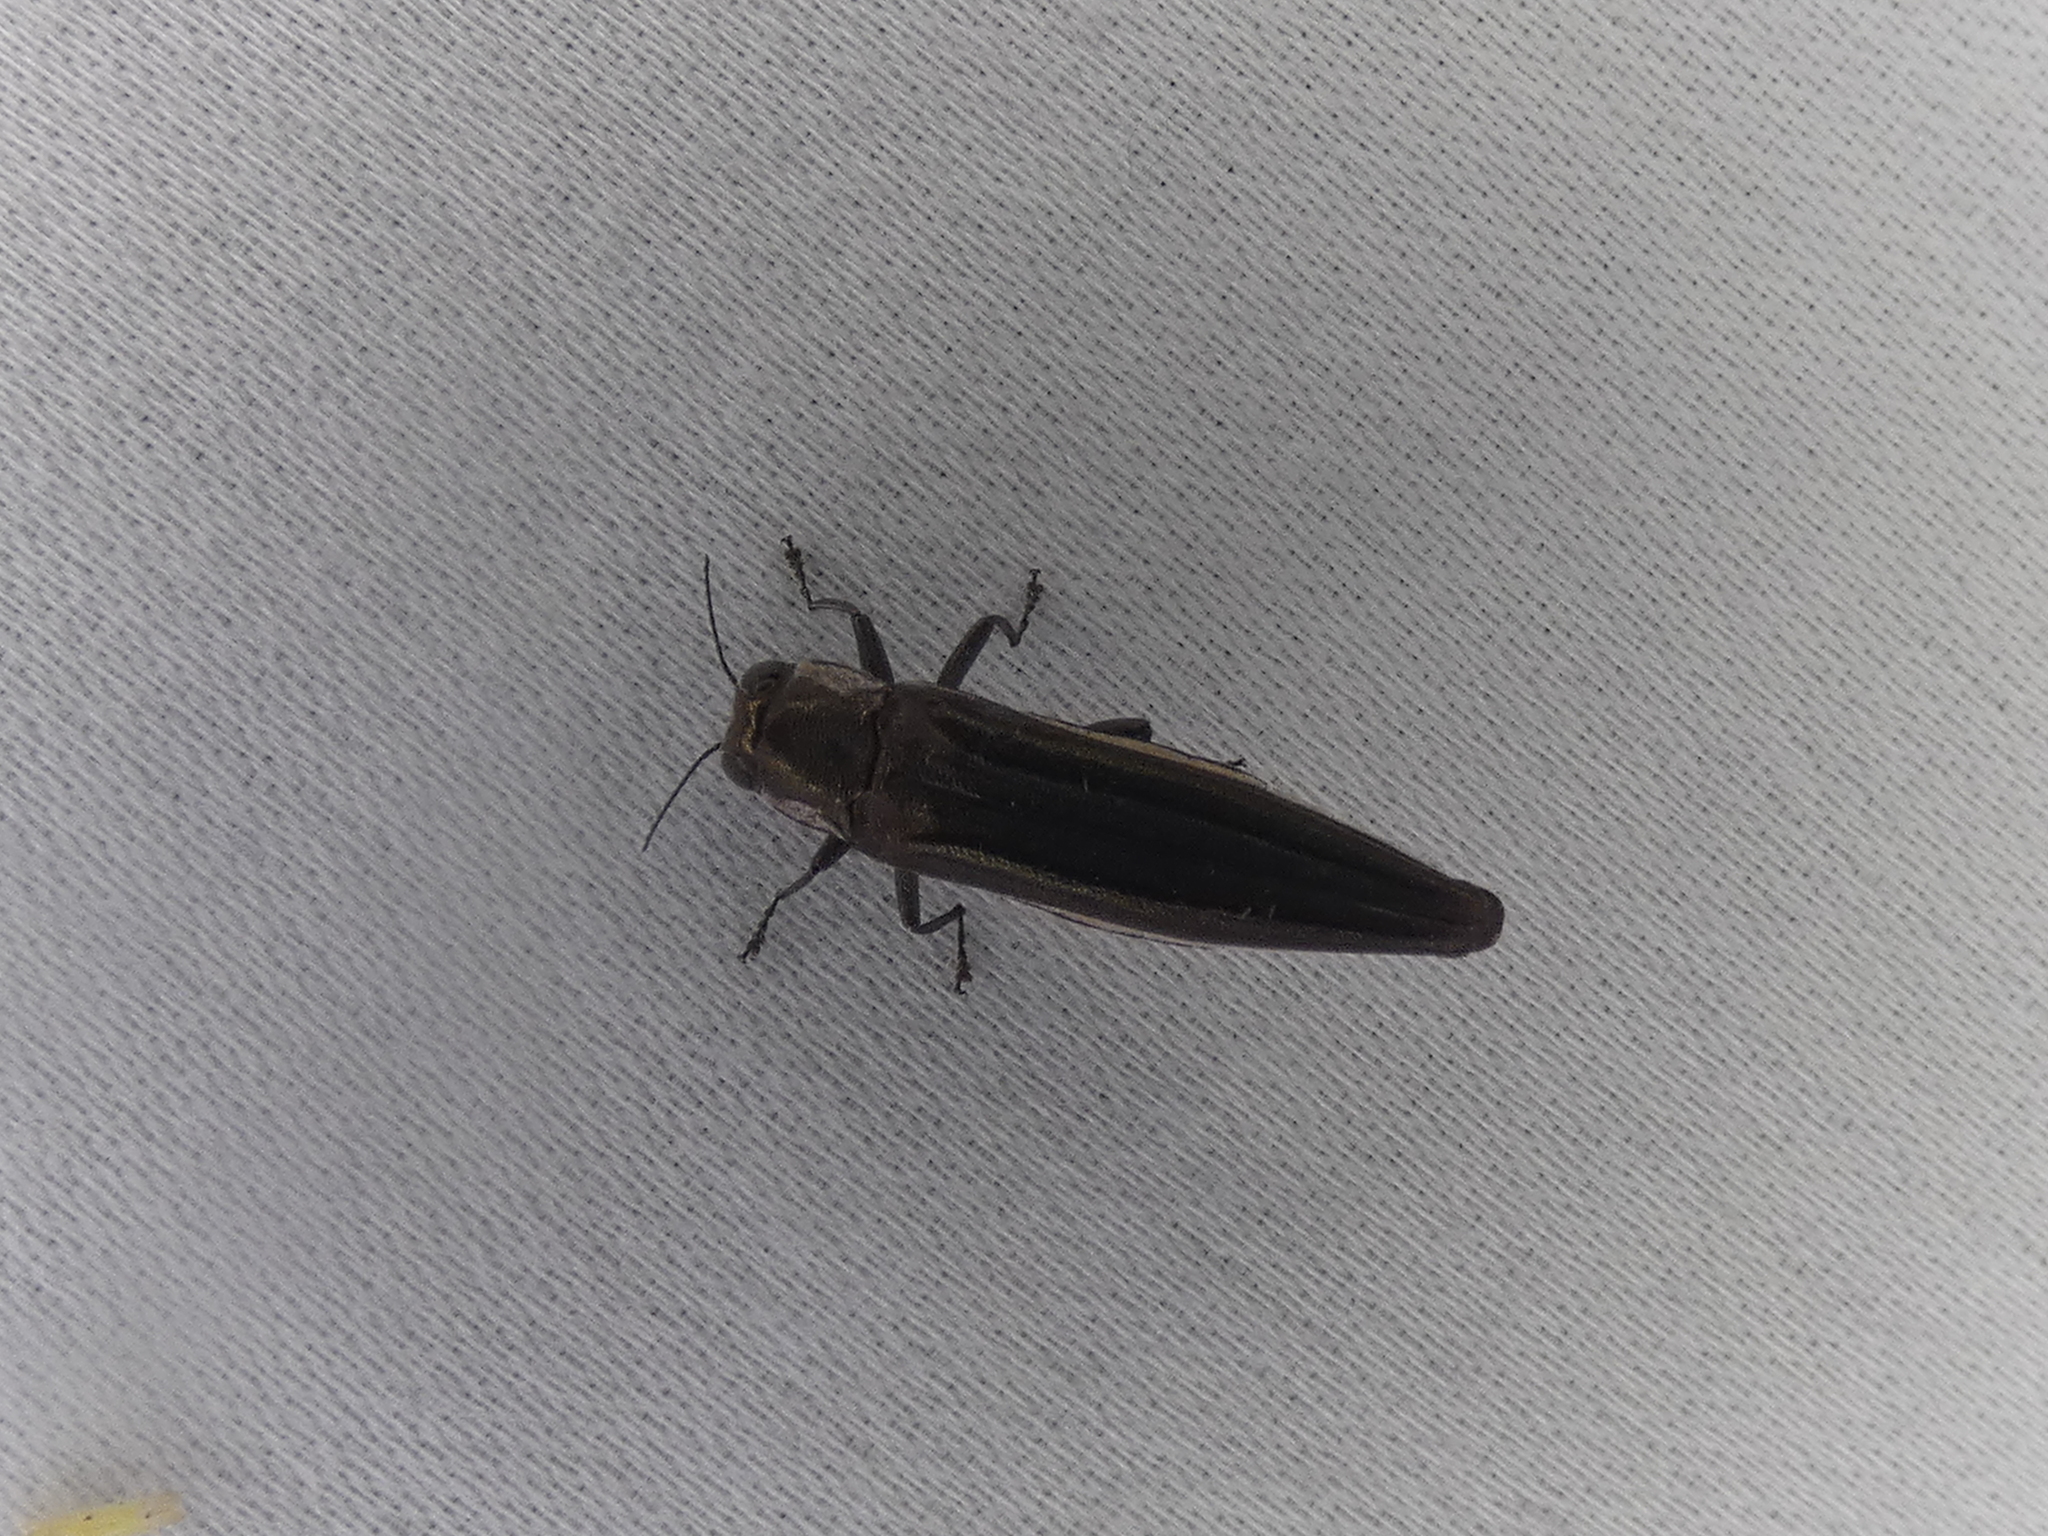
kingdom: Animalia
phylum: Arthropoda
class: Insecta
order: Coleoptera
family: Buprestidae
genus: Agrilus
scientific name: Agrilus macer
